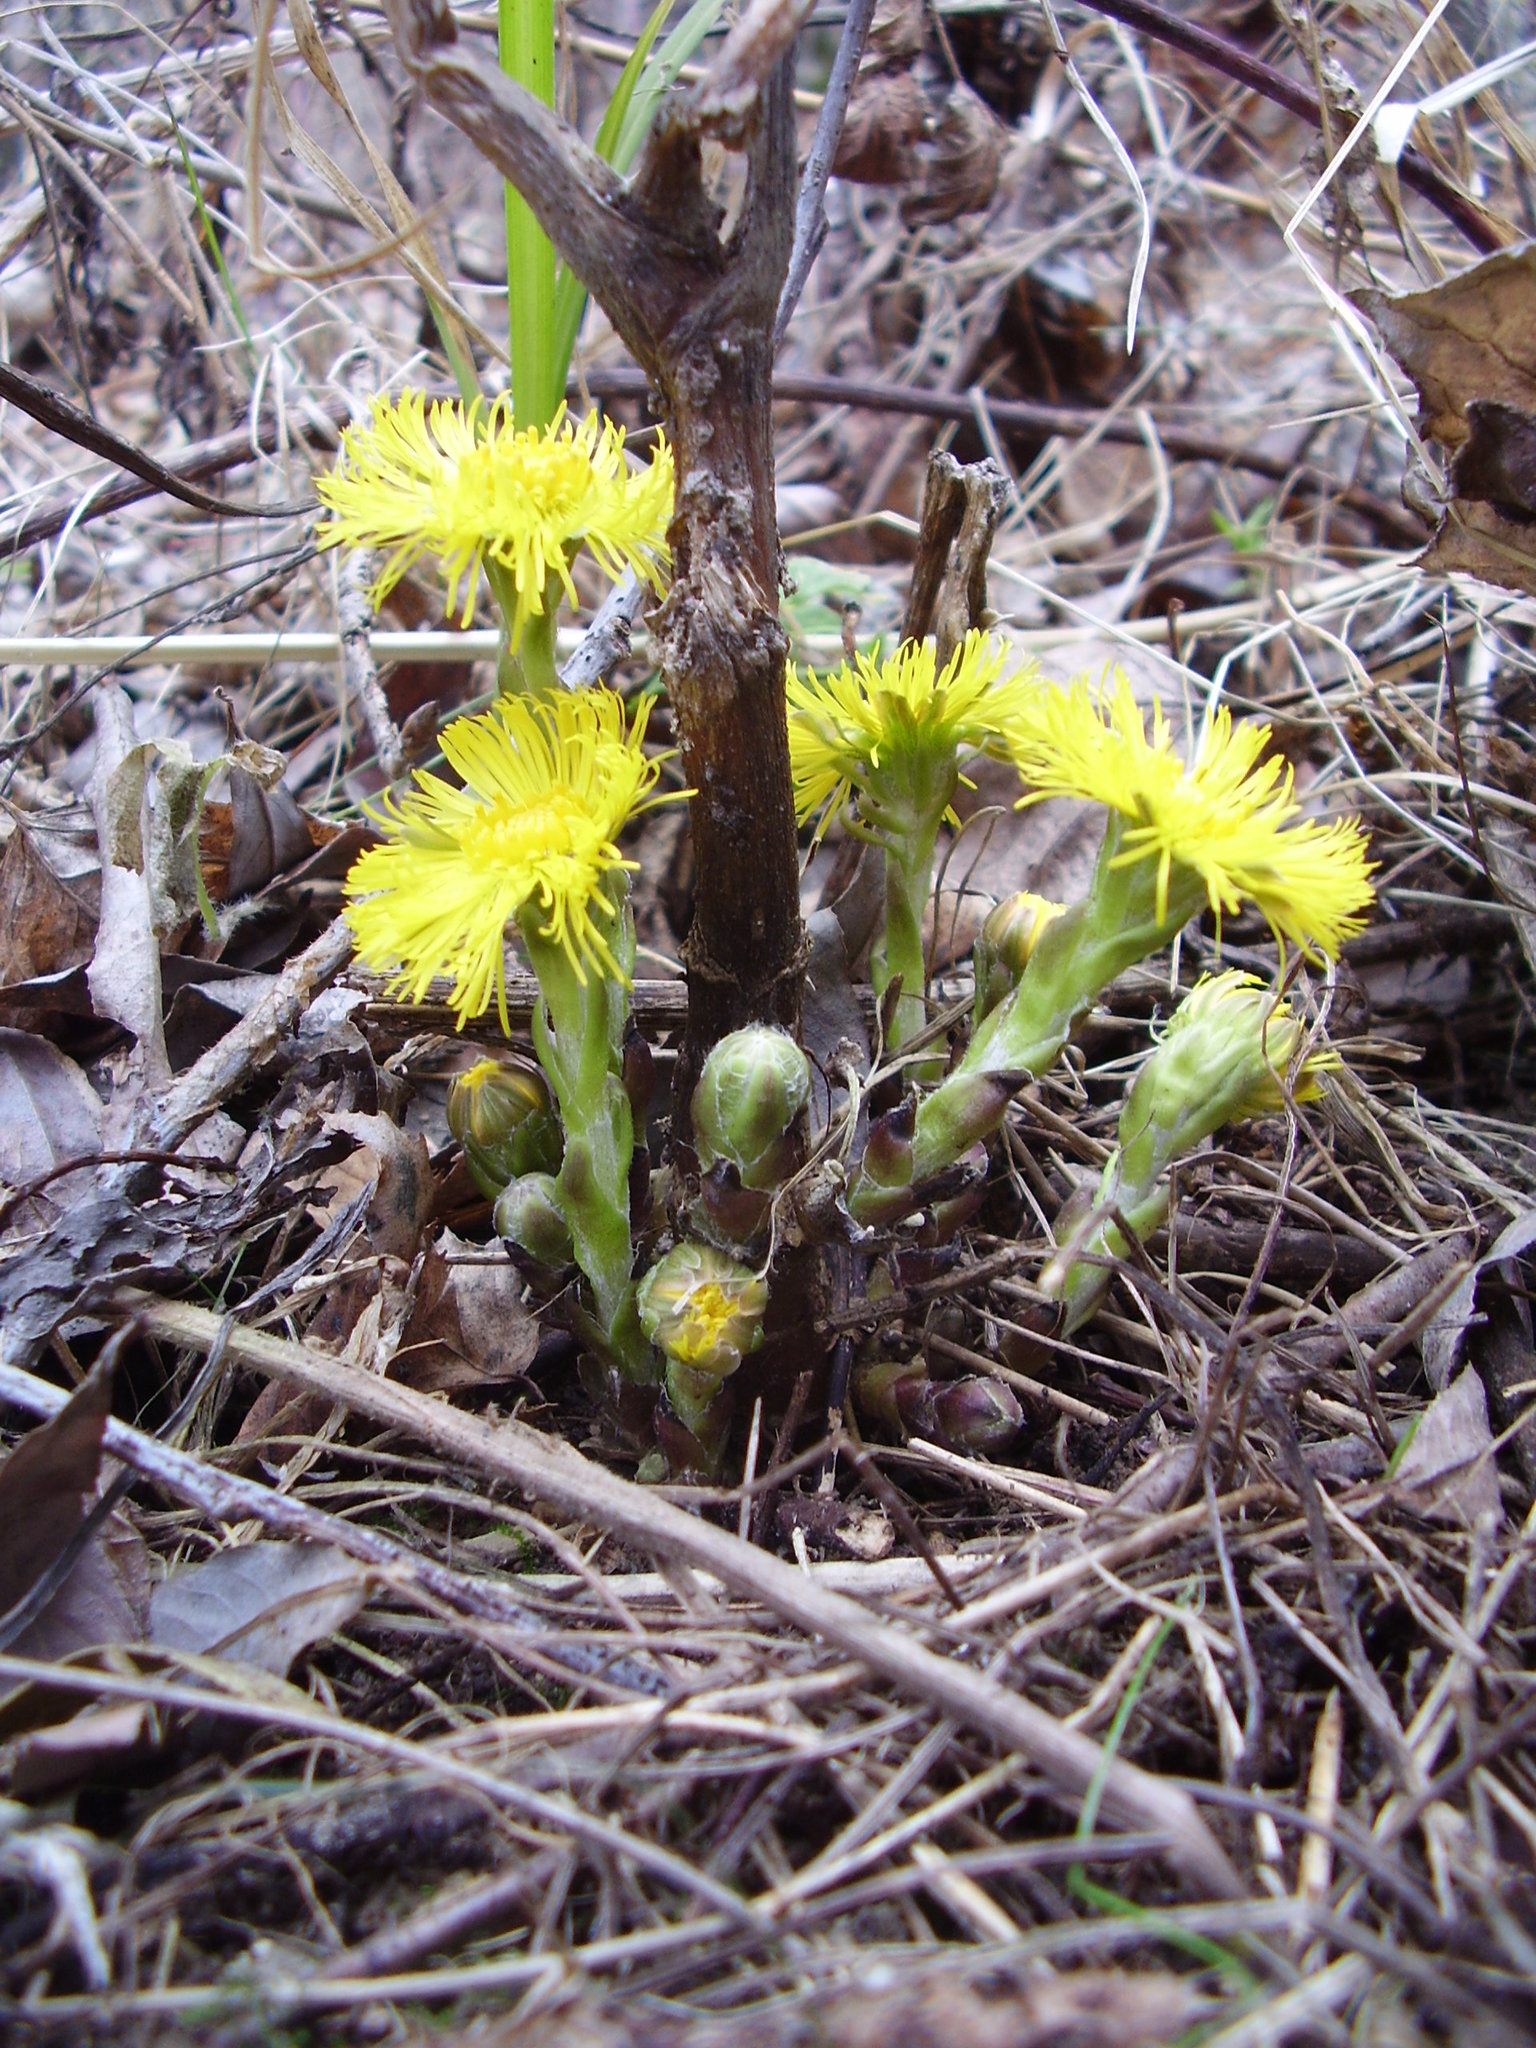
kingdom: Plantae
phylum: Tracheophyta
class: Magnoliopsida
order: Asterales
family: Asteraceae
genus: Tussilago
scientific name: Tussilago farfara
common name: Coltsfoot
